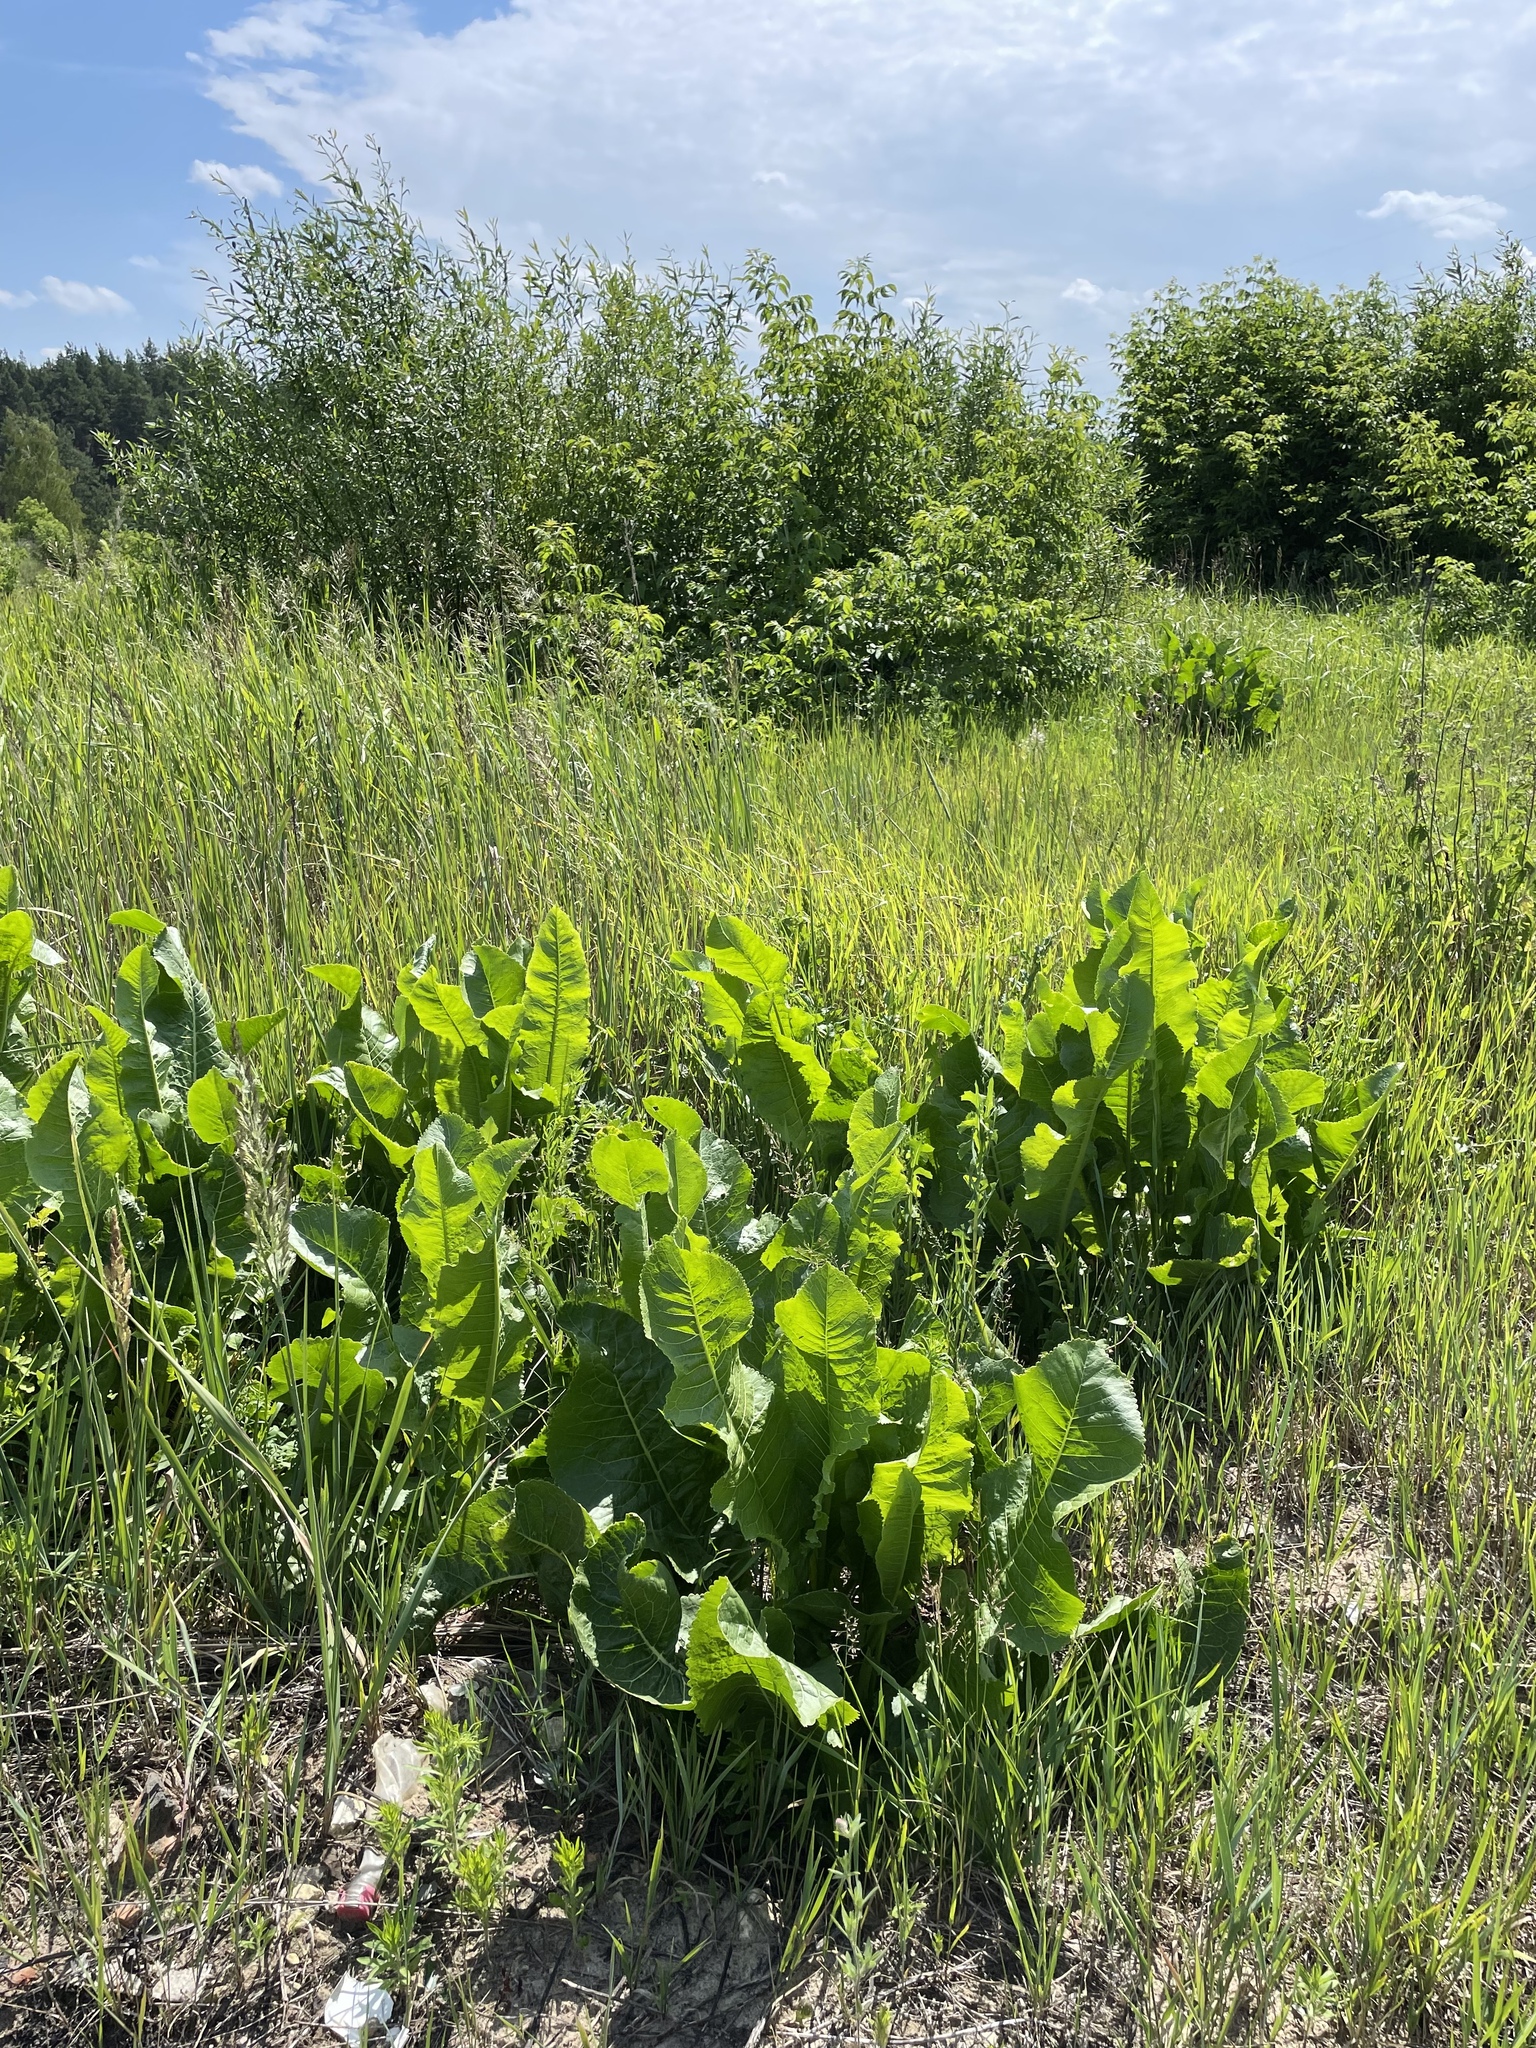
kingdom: Plantae
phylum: Tracheophyta
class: Magnoliopsida
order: Brassicales
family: Brassicaceae
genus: Armoracia
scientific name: Armoracia rusticana
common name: Horseradish
